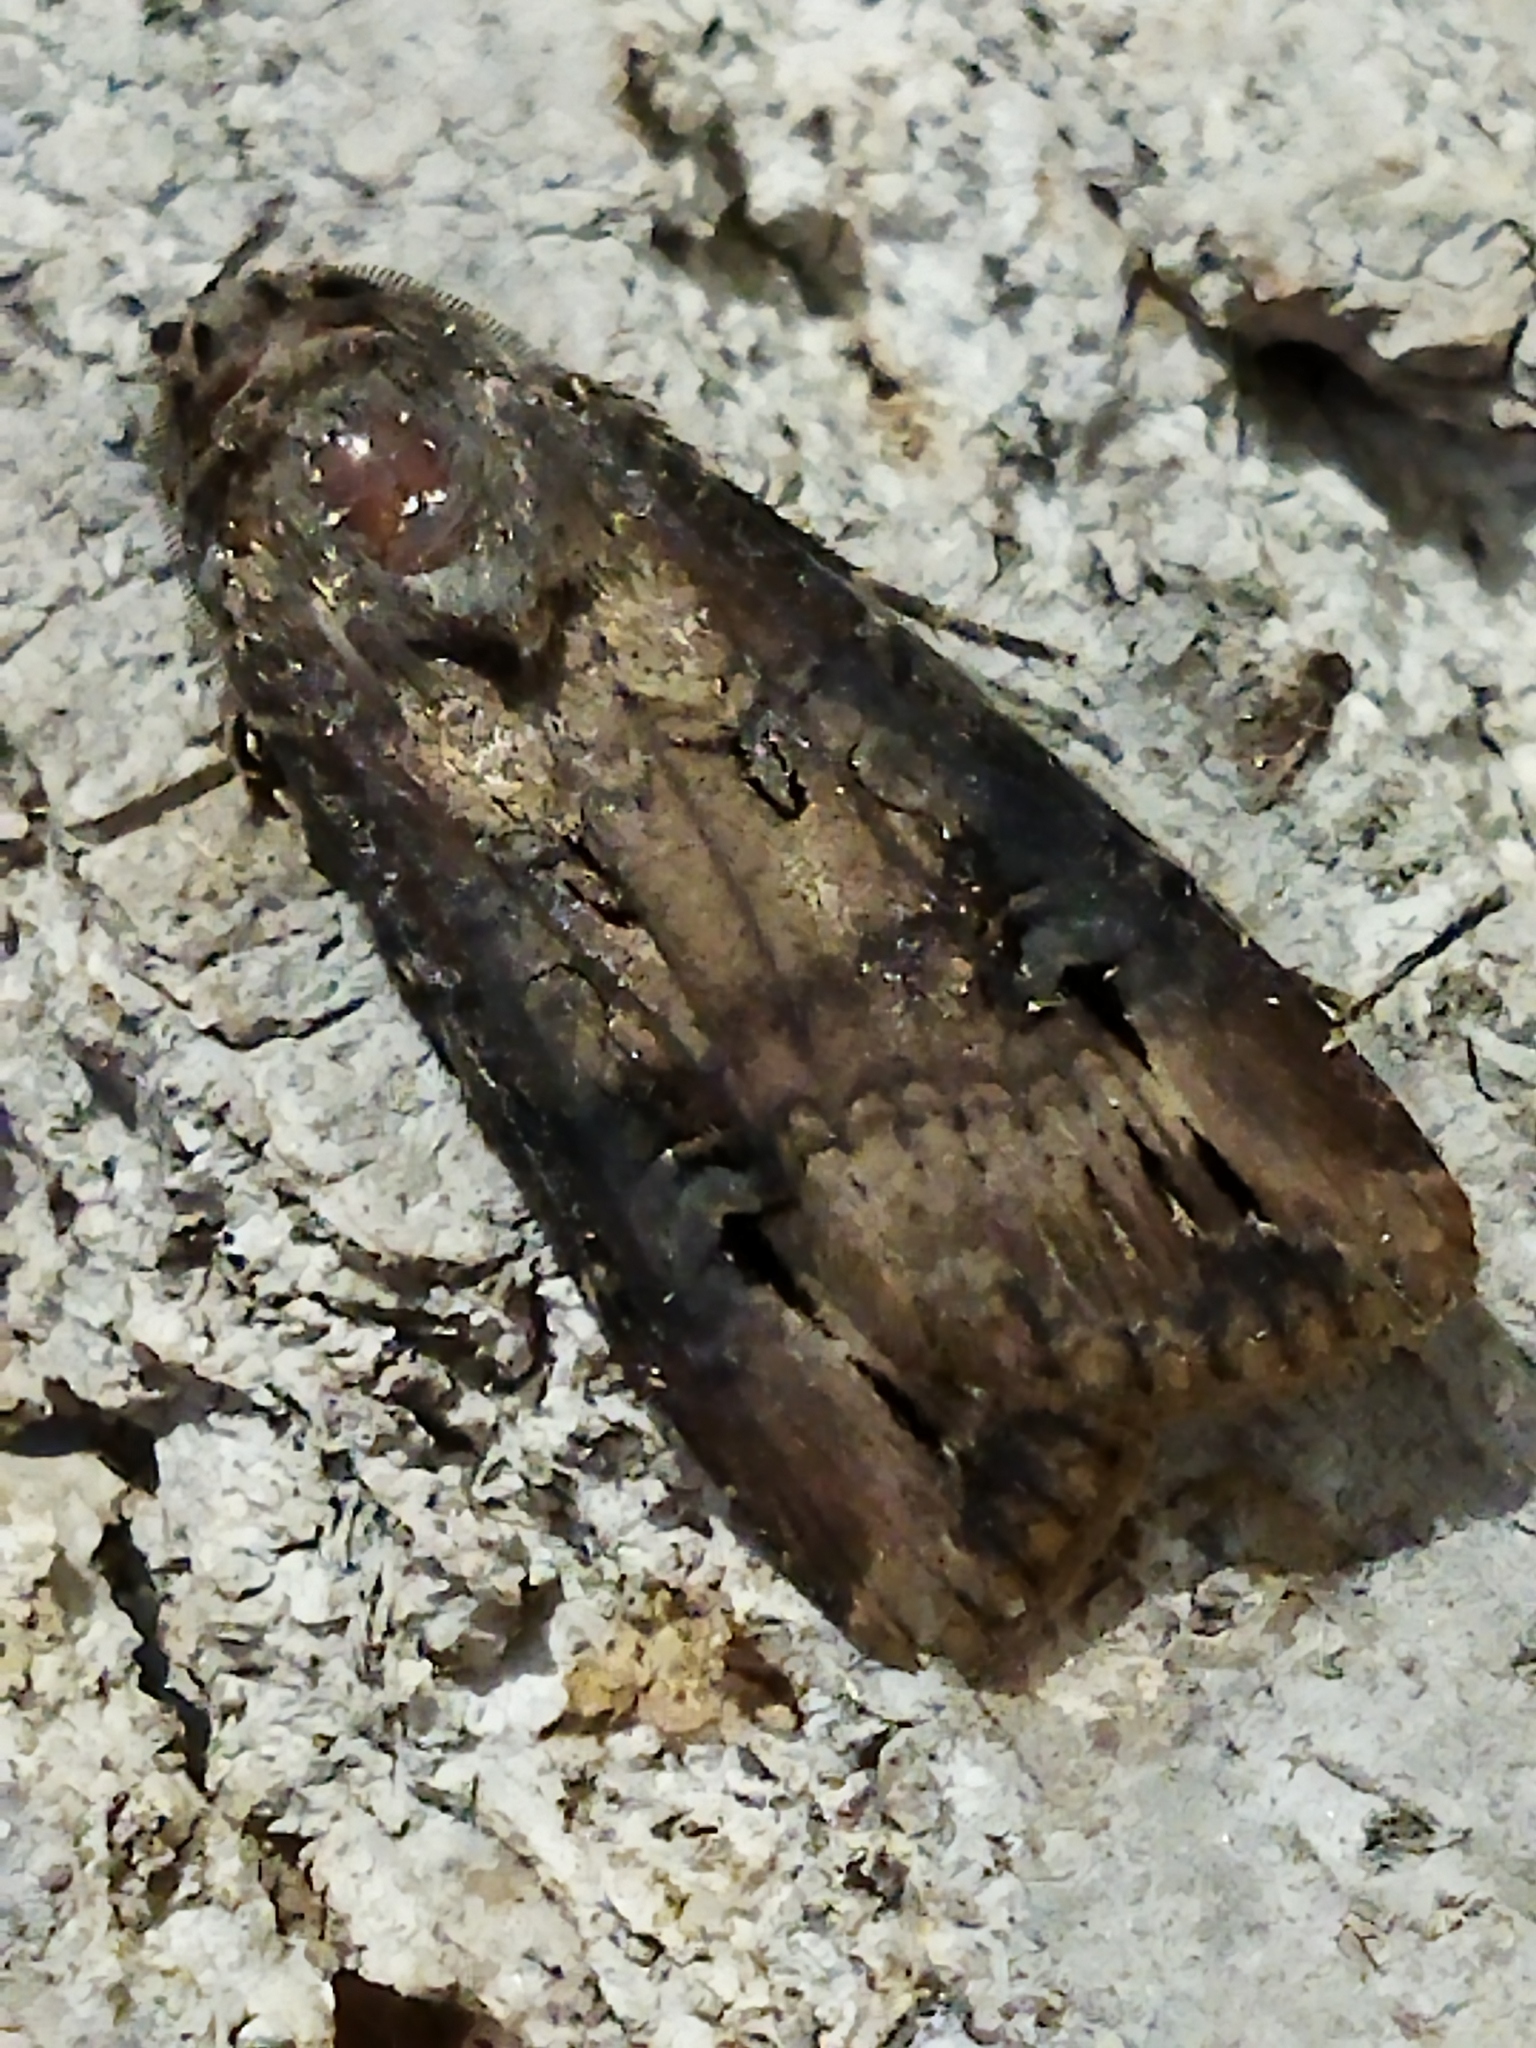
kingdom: Animalia
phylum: Arthropoda
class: Insecta
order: Lepidoptera
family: Noctuidae
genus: Agrotis
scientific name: Agrotis ipsilon
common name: Dark sword-grass
